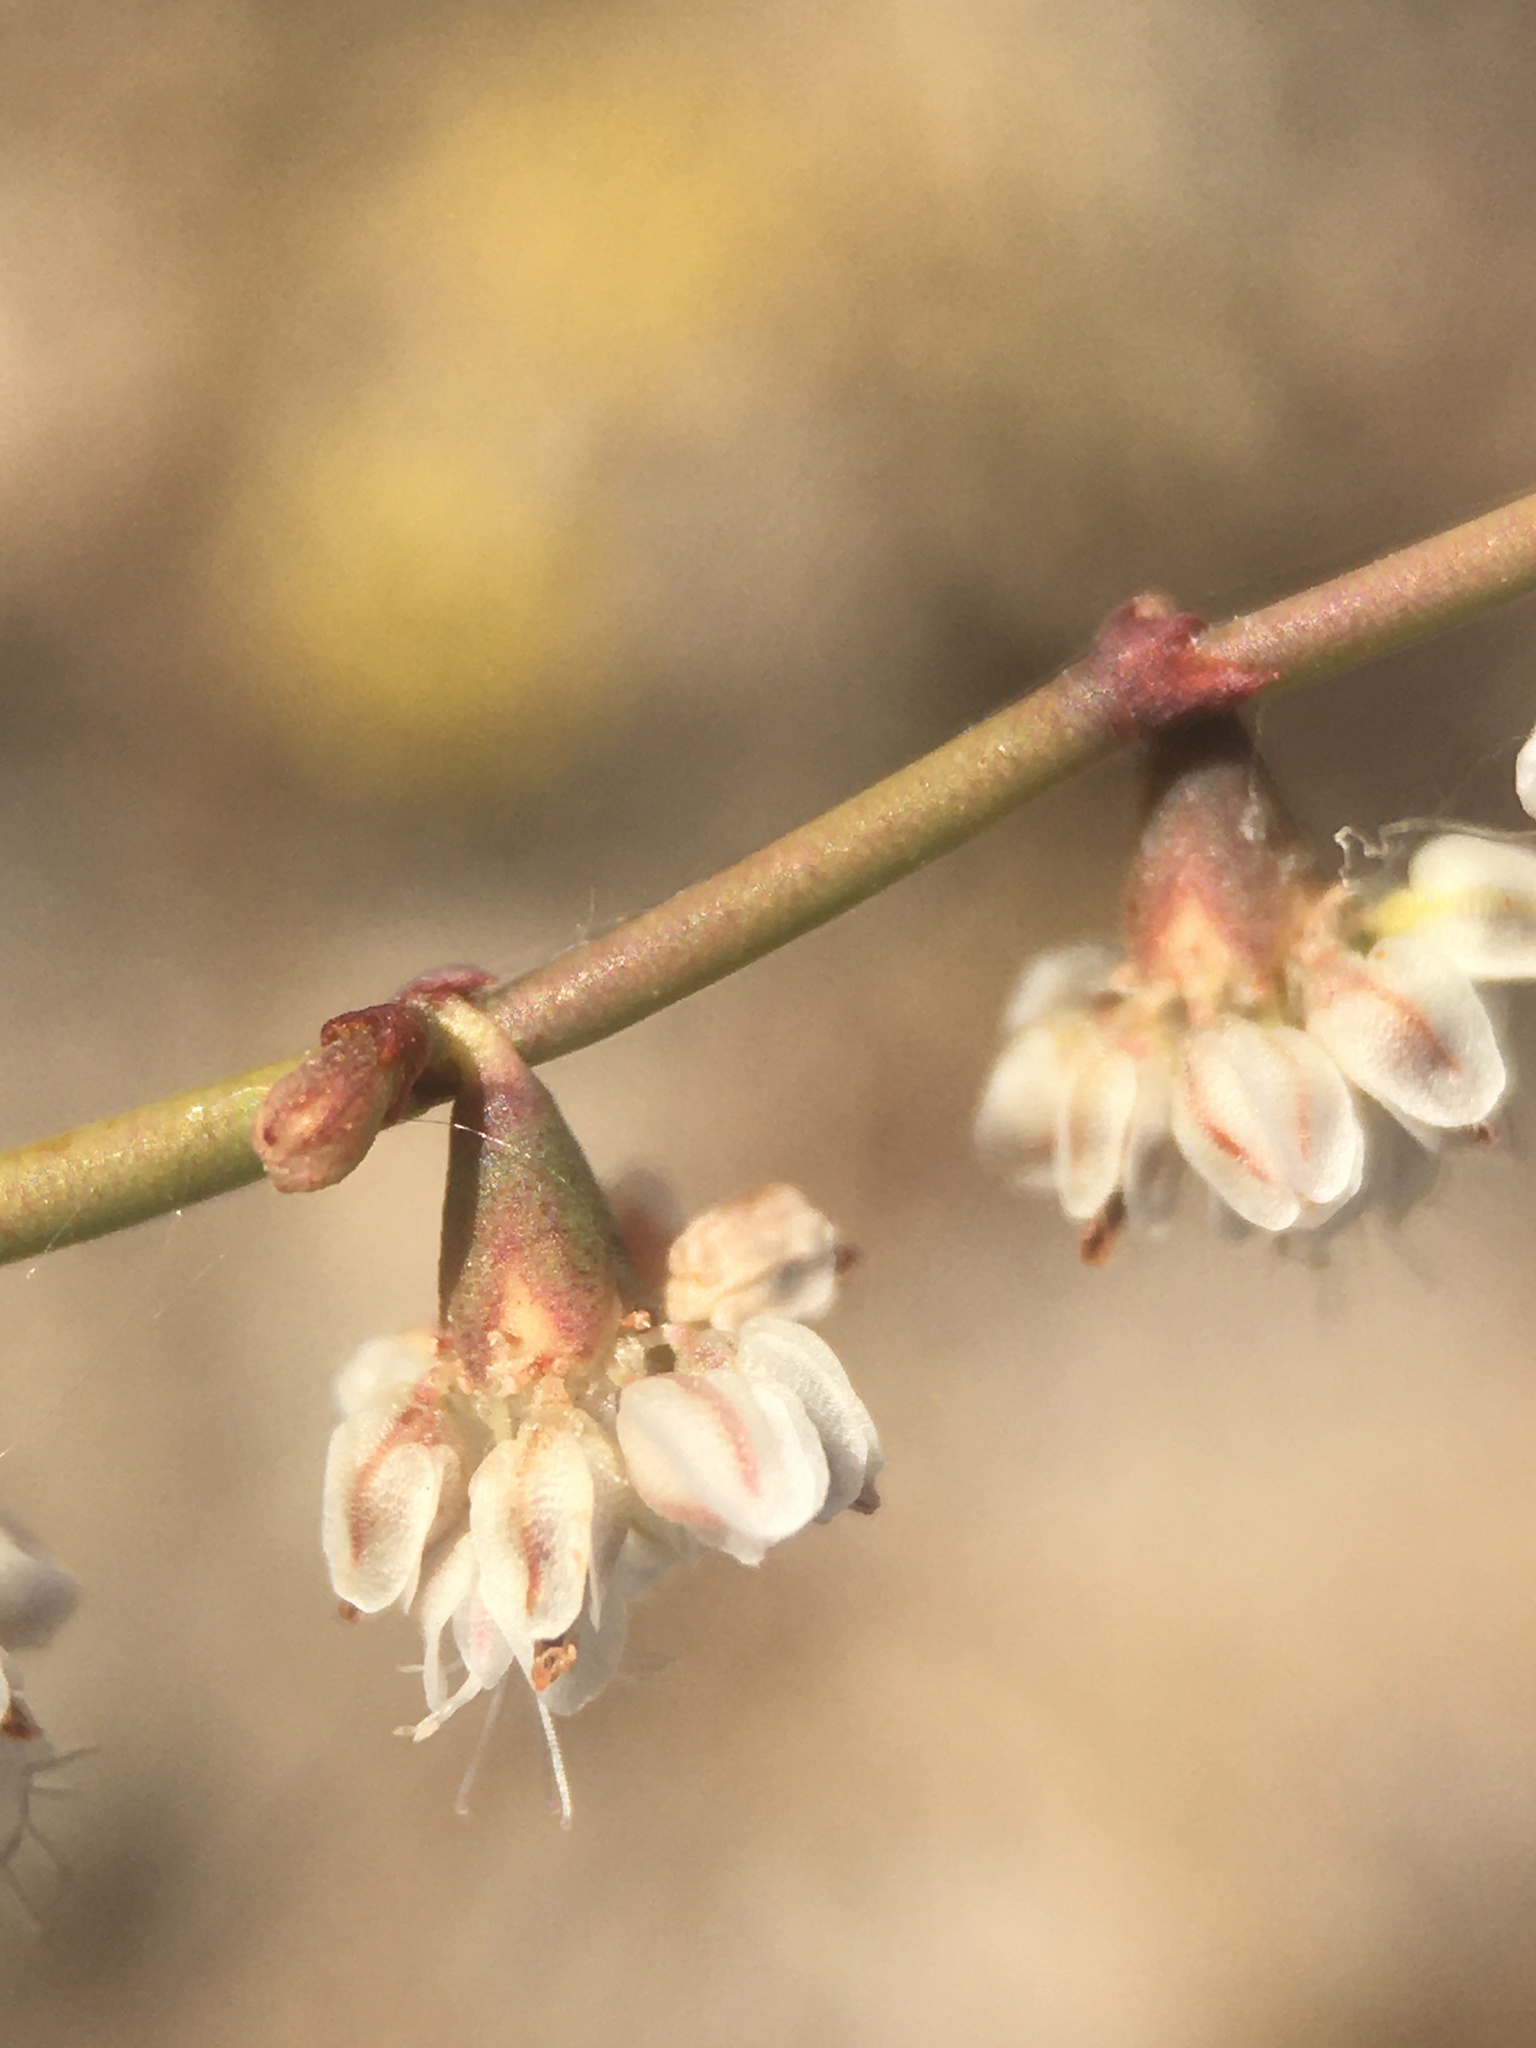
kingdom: Plantae
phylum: Tracheophyta
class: Magnoliopsida
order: Caryophyllales
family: Polygonaceae
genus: Eriogonum
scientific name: Eriogonum deflexum
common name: Skeleton-weed
